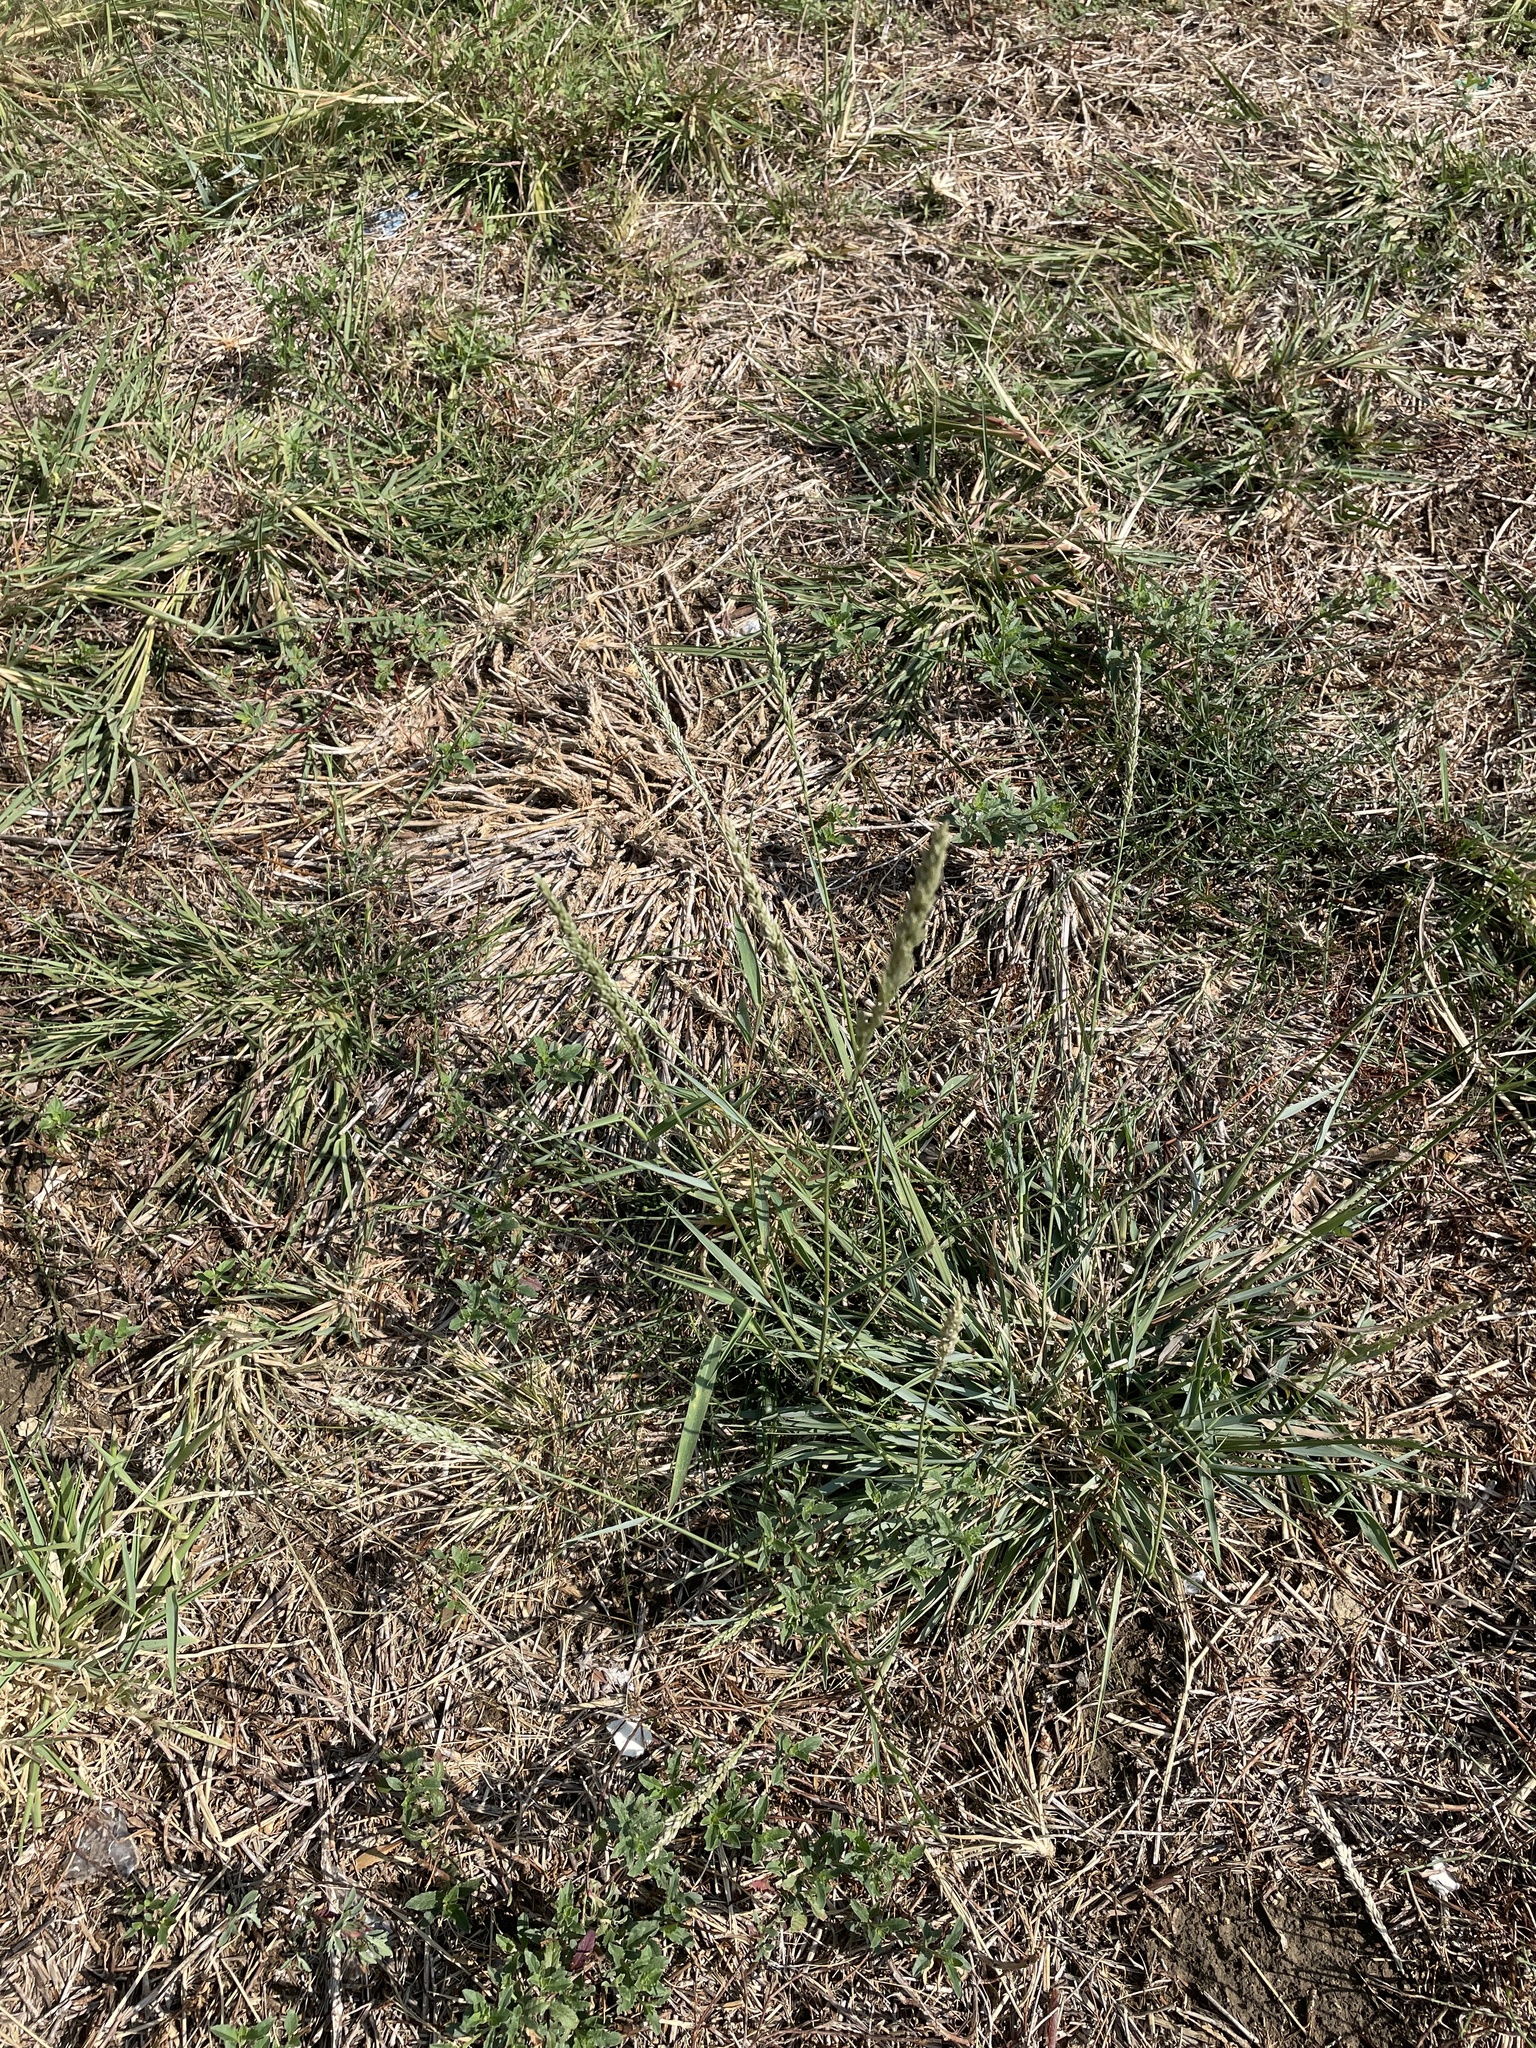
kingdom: Plantae
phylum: Tracheophyta
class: Liliopsida
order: Poales
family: Poaceae
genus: Tridens
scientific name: Tridens albescens
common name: White tridens
